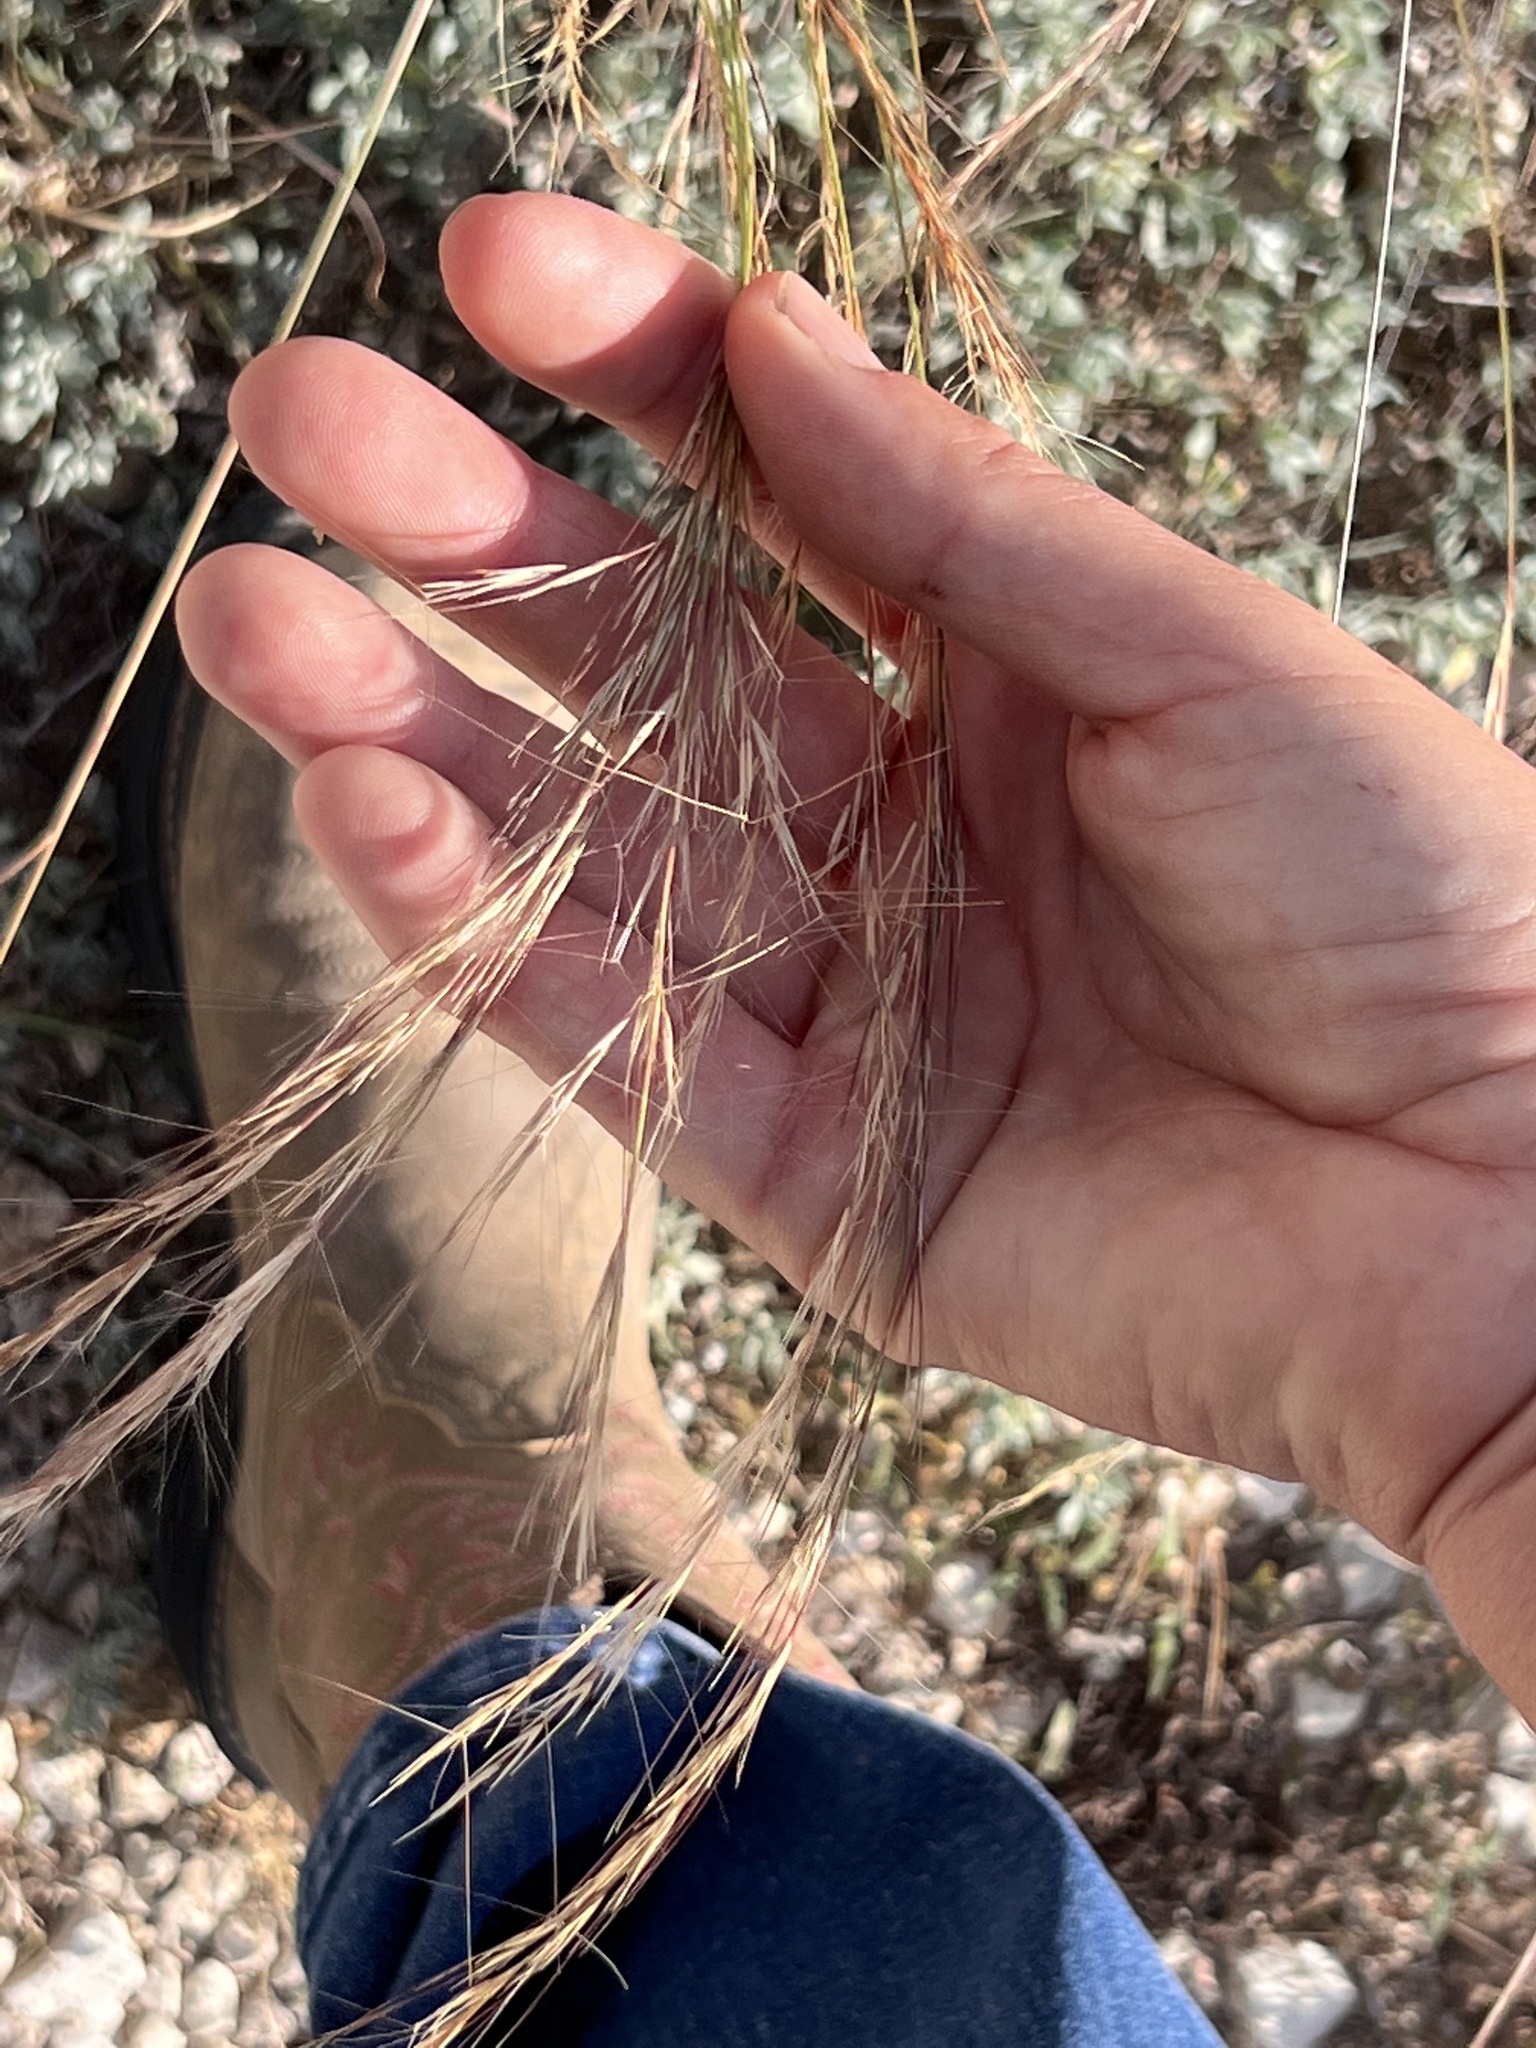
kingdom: Plantae
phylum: Tracheophyta
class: Liliopsida
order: Poales
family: Poaceae
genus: Aristida
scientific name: Aristida purpurea
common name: Purple threeawn
